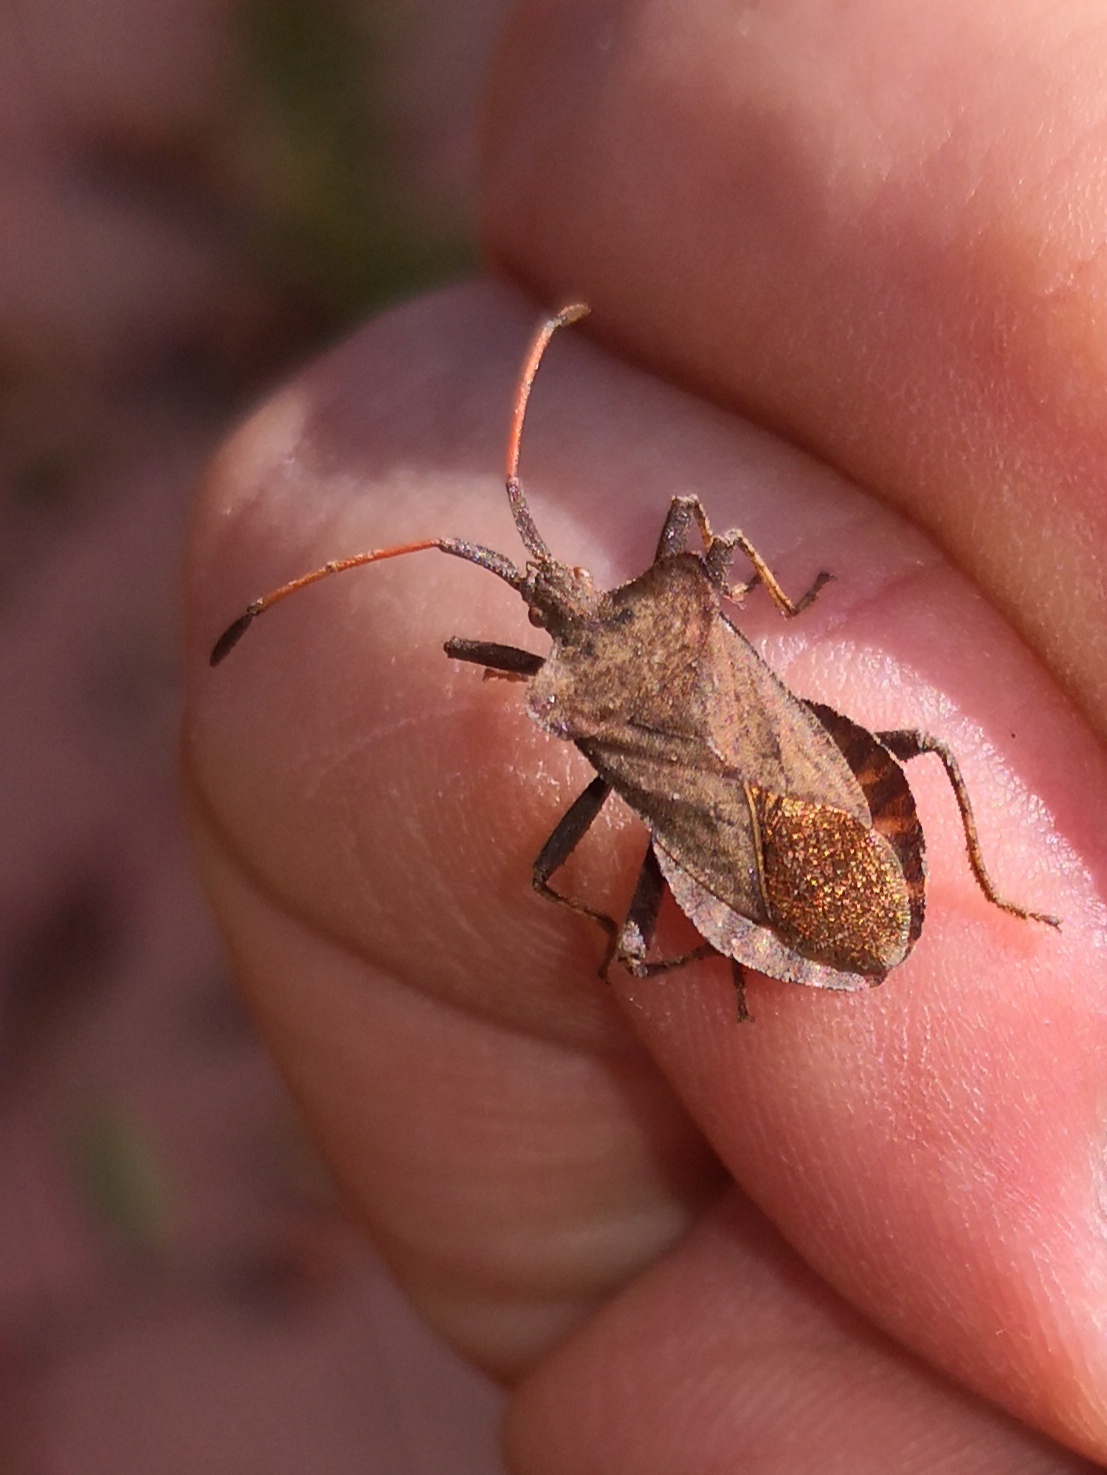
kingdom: Animalia
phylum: Arthropoda
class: Insecta
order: Hemiptera
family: Coreidae
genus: Coreus
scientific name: Coreus marginatus
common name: Dock bug
